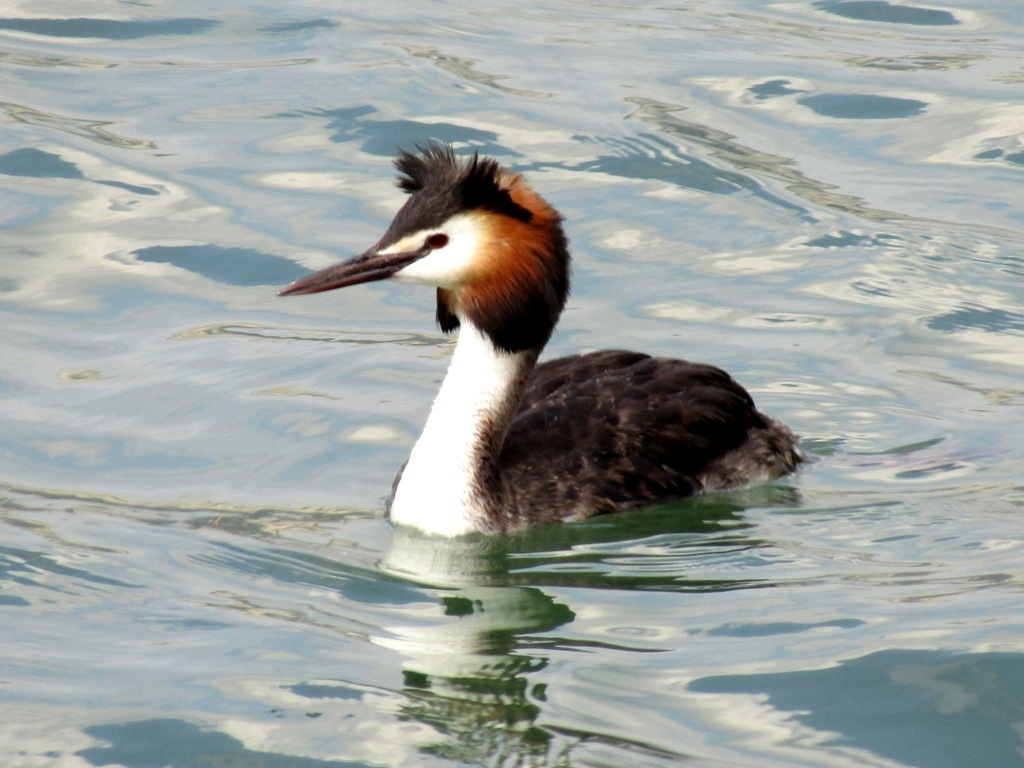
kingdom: Animalia
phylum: Chordata
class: Aves
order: Podicipediformes
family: Podicipedidae
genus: Podiceps
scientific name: Podiceps cristatus
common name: Great crested grebe
